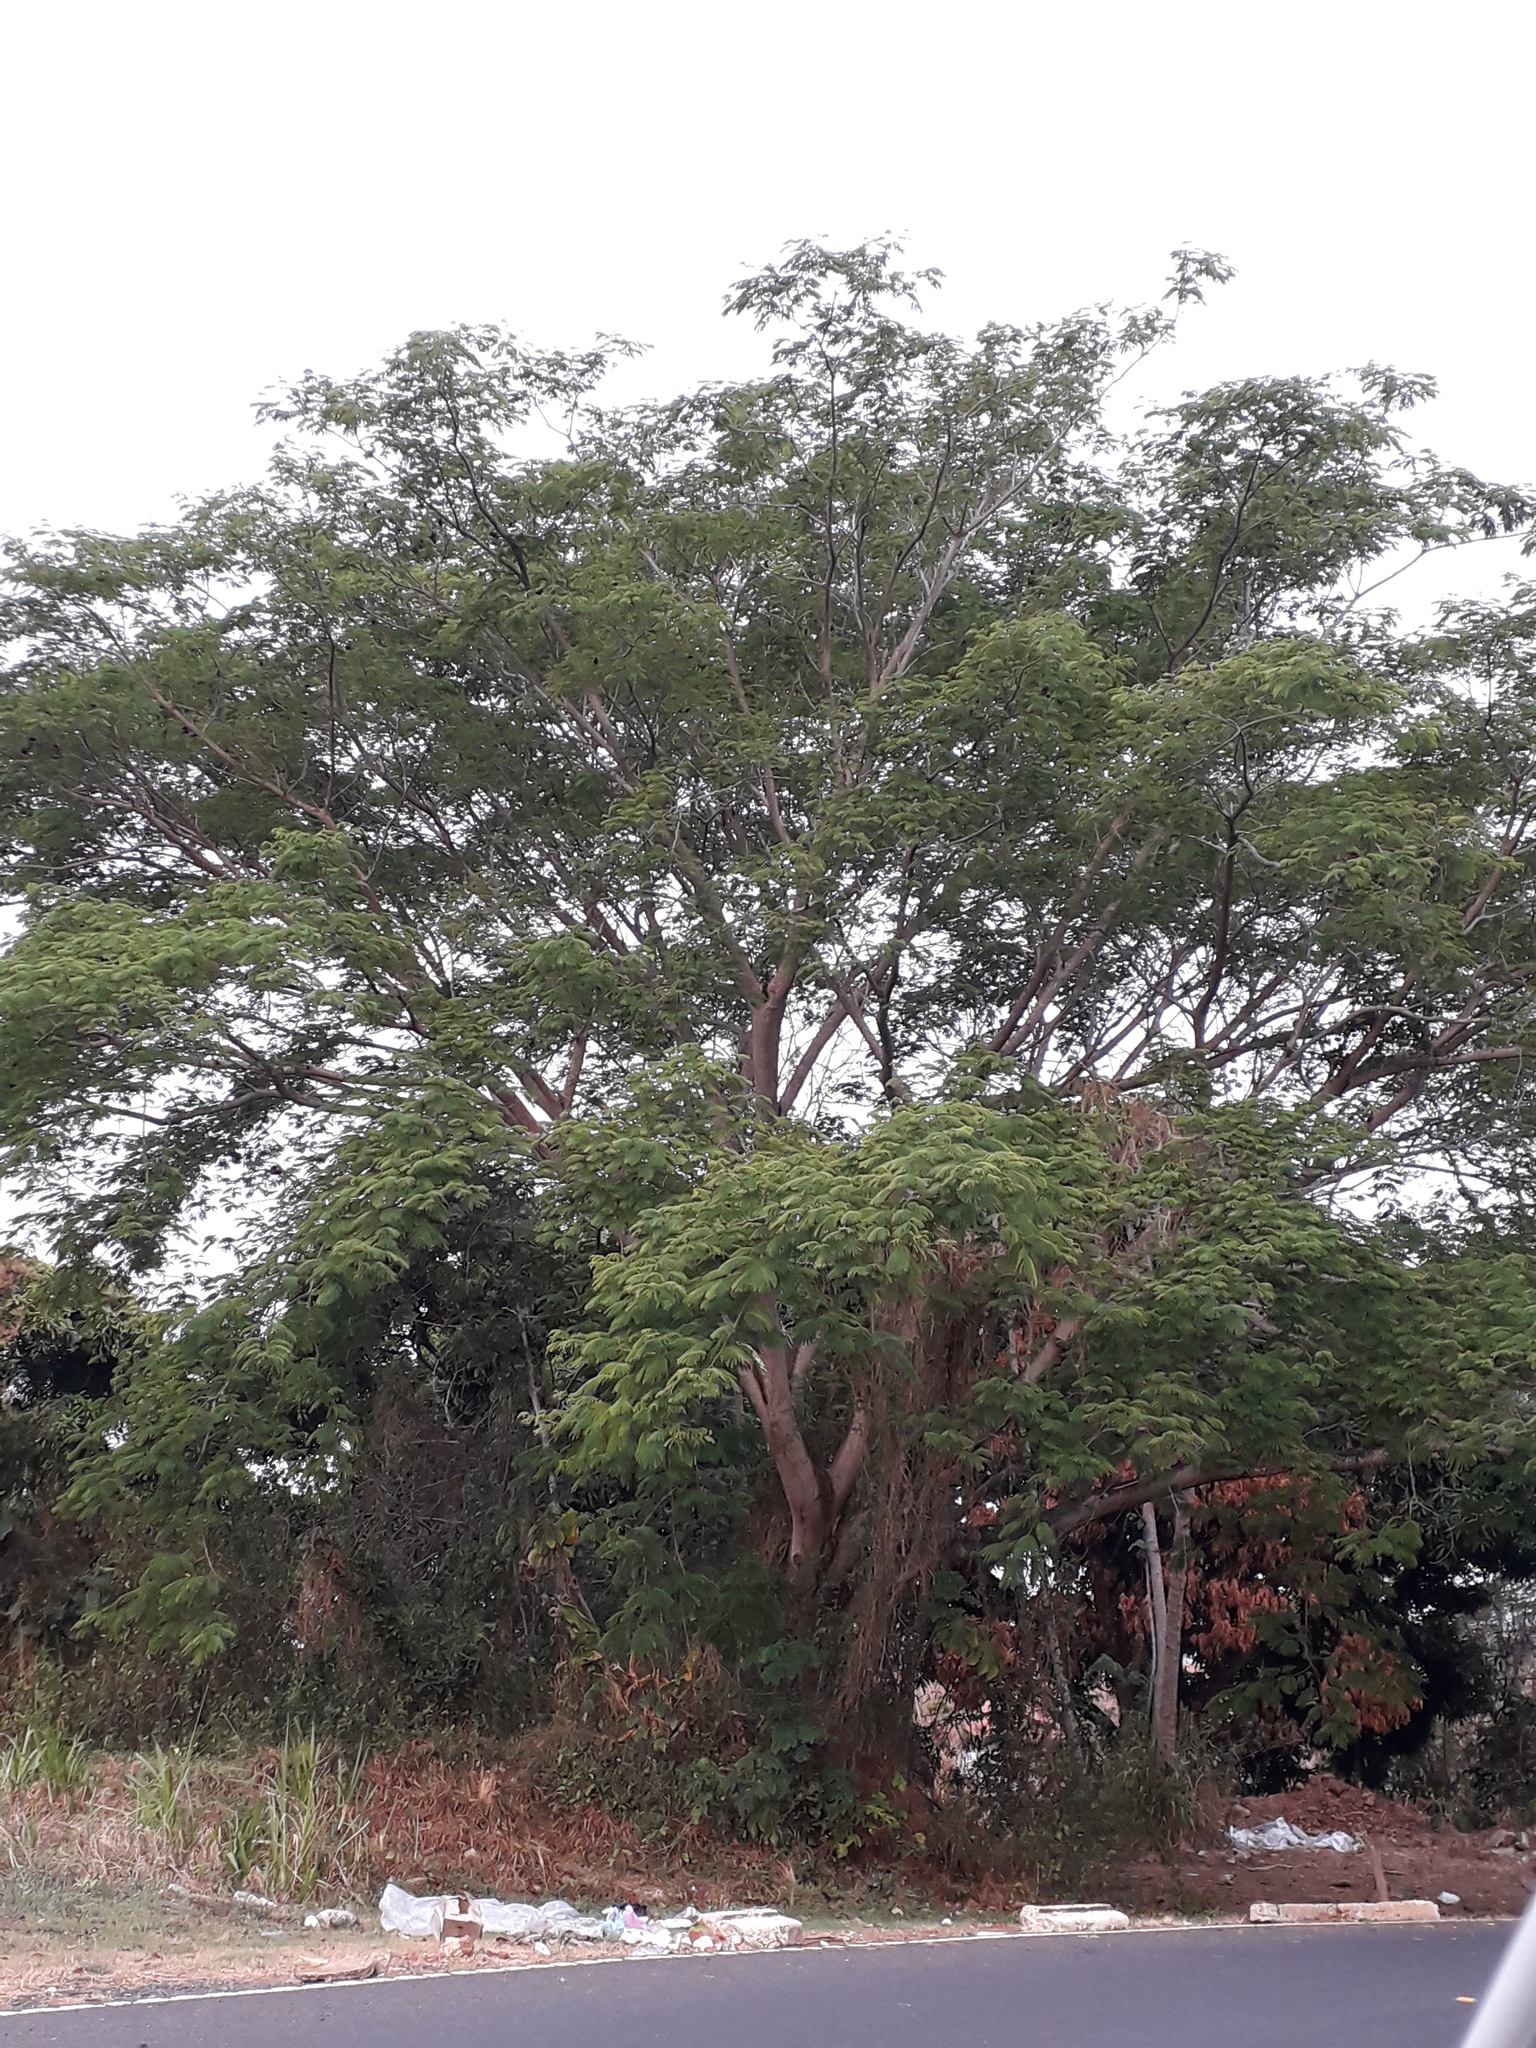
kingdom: Plantae
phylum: Tracheophyta
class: Magnoliopsida
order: Fabales
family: Fabaceae
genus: Enterolobium
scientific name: Enterolobium cyclocarpum
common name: Ear tree
